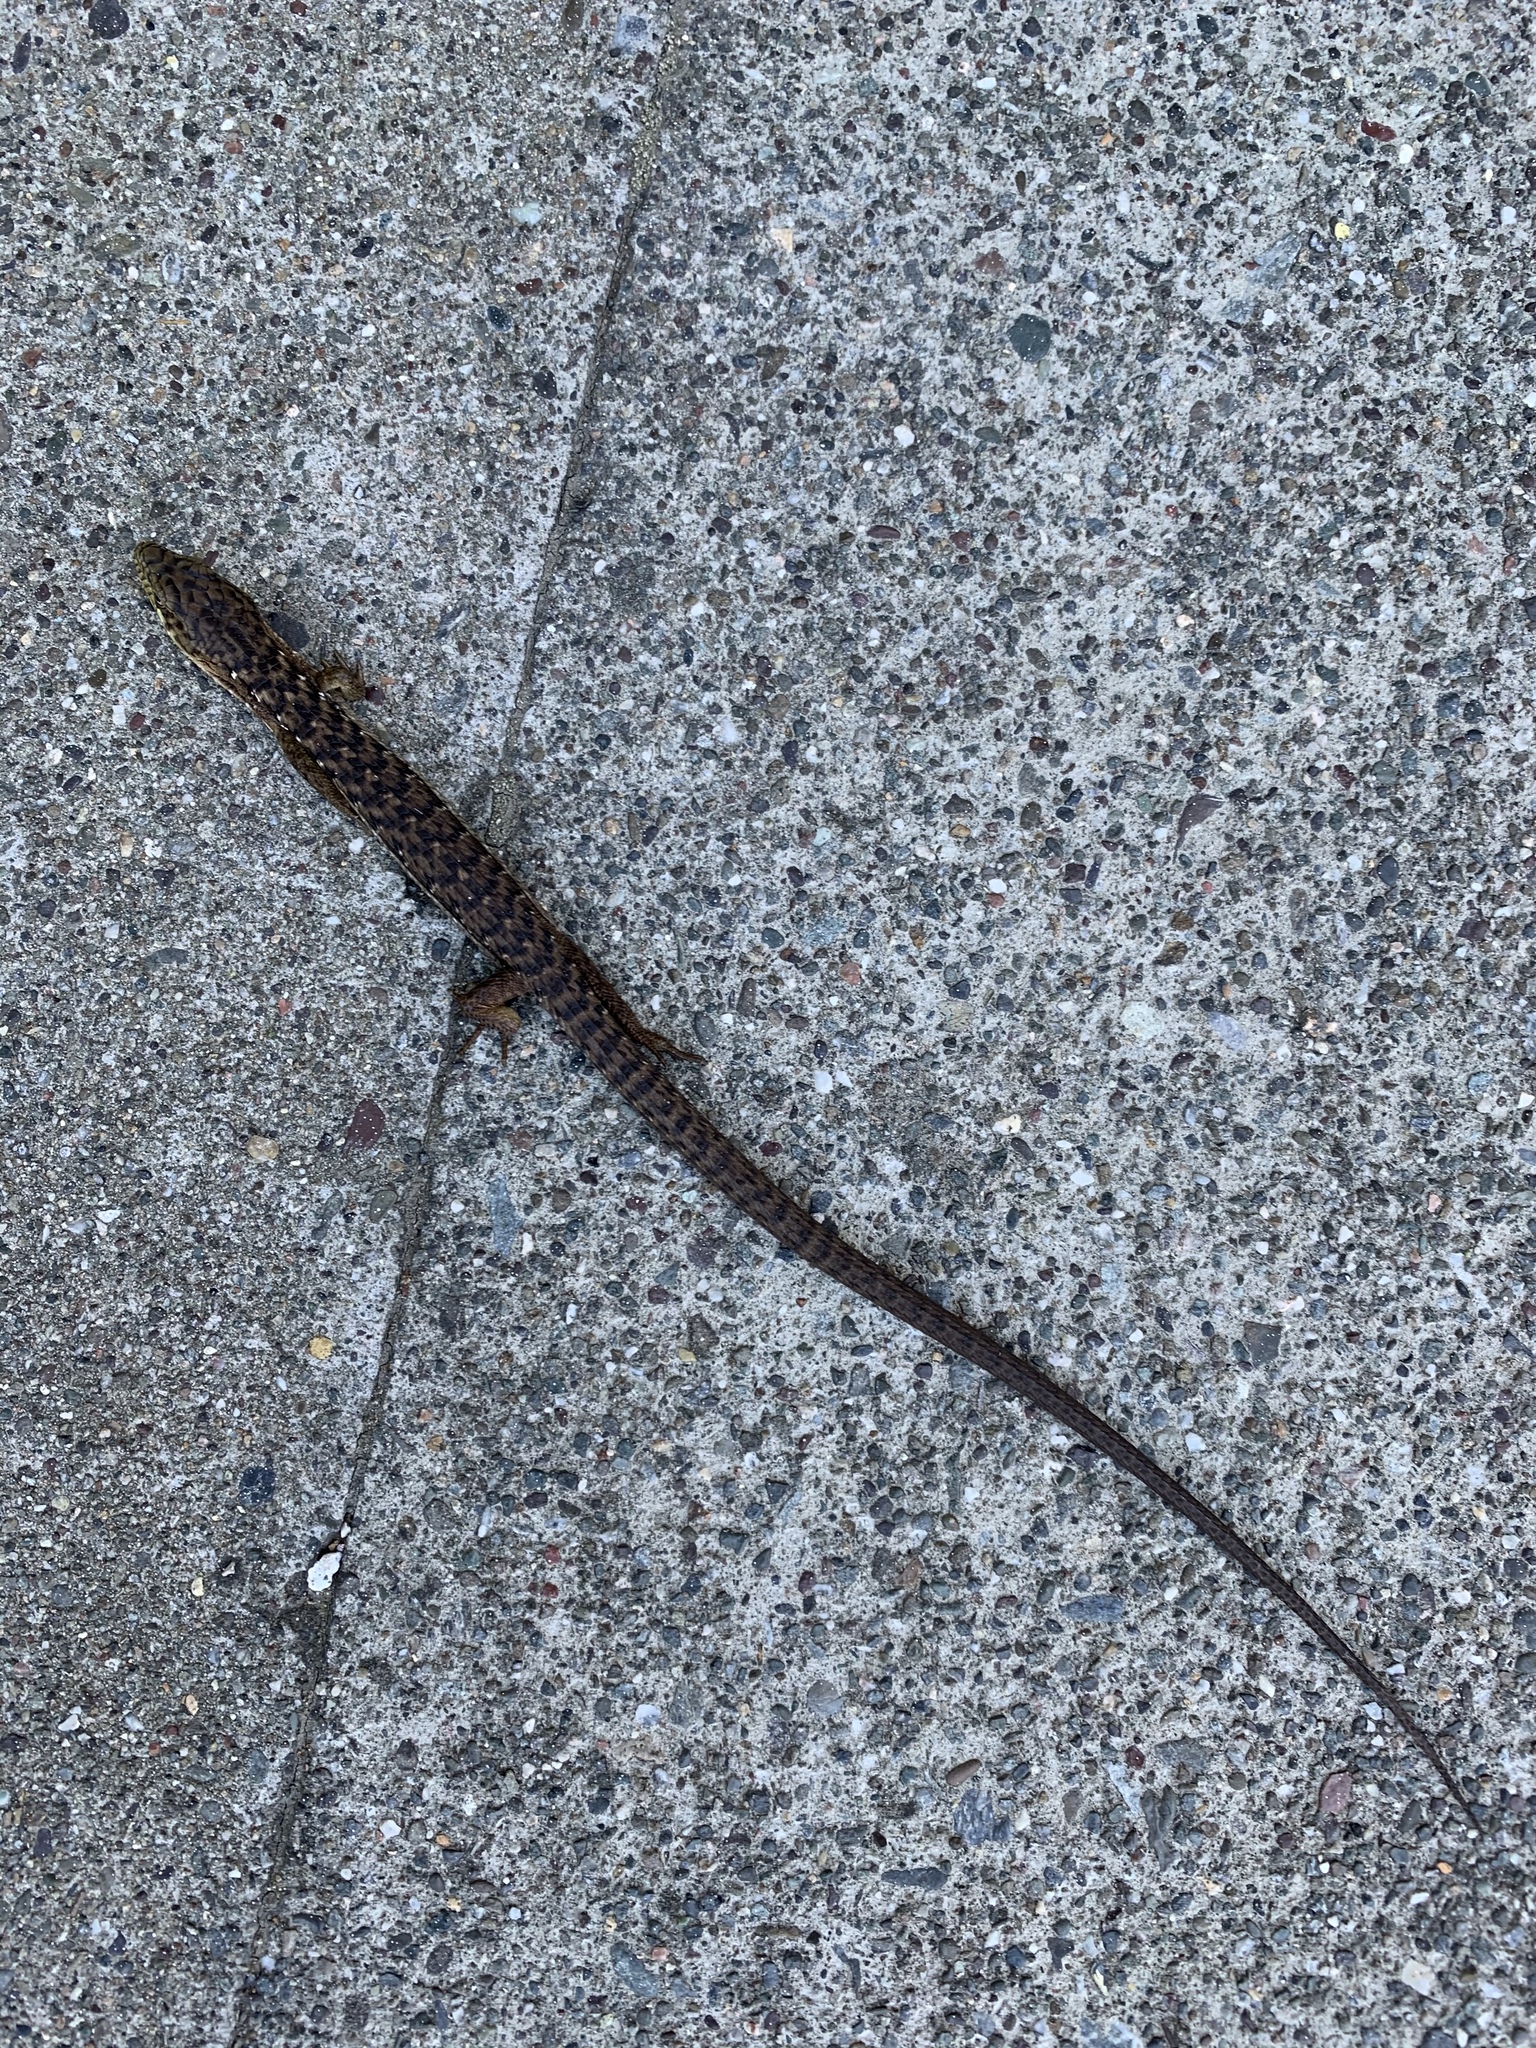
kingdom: Animalia
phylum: Chordata
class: Squamata
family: Anguidae
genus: Elgaria
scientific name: Elgaria multicarinata
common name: Southern alligator lizard
